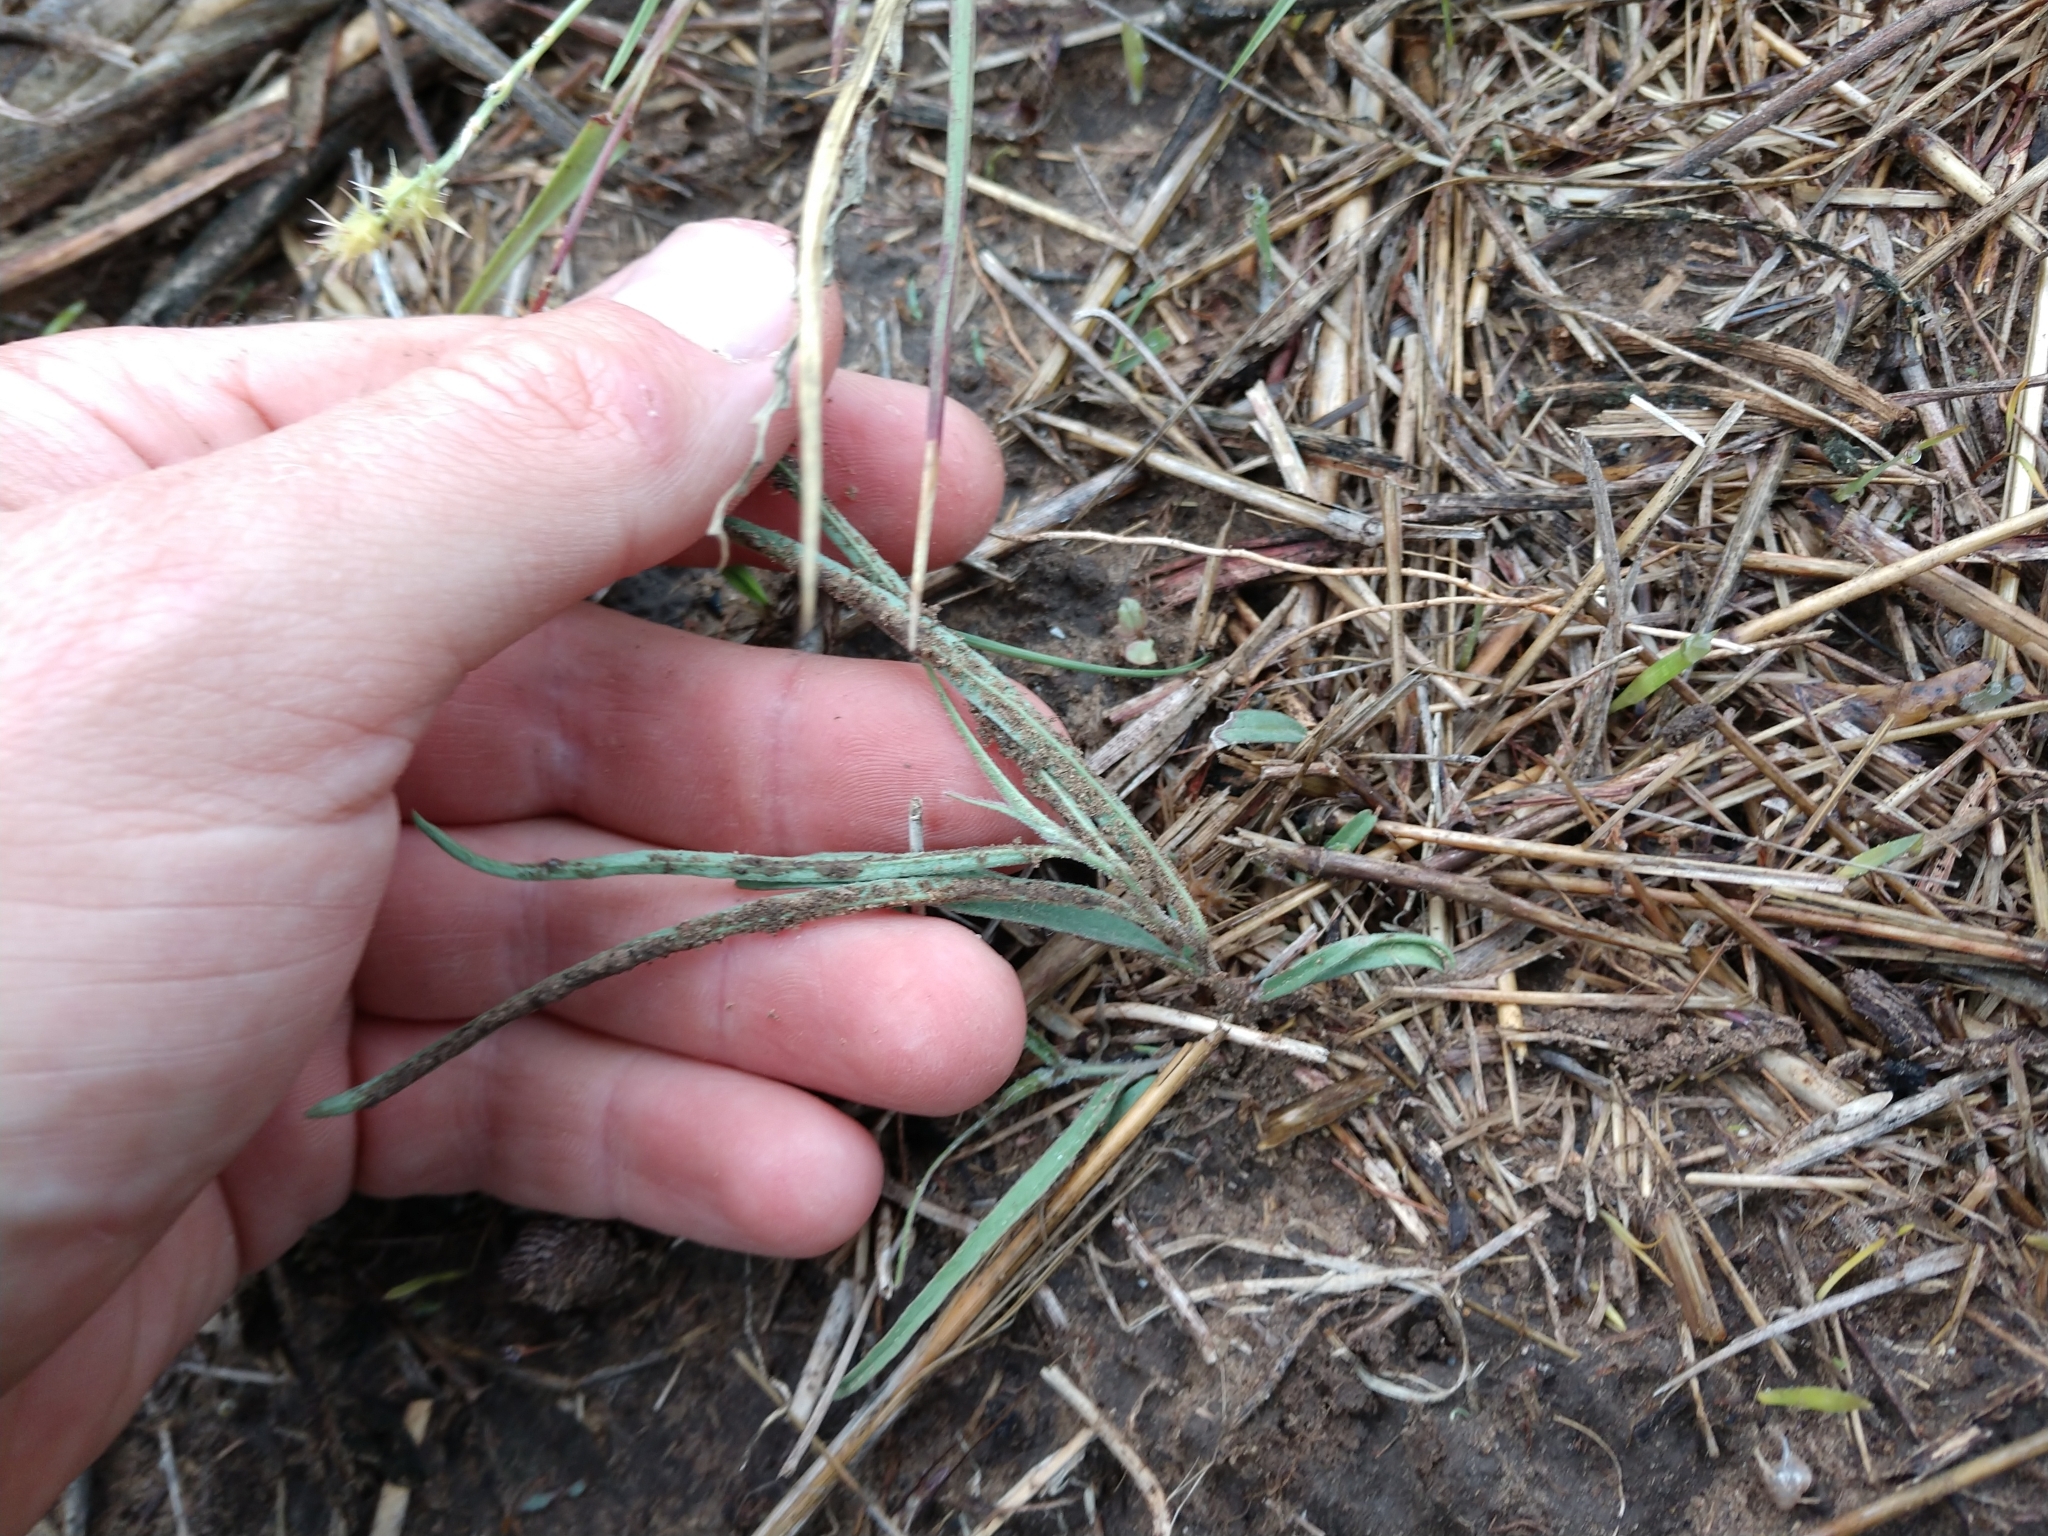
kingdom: Plantae
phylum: Tracheophyta
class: Magnoliopsida
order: Piperales
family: Aristolochiaceae
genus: Aristolochia
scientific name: Aristolochia erecta
